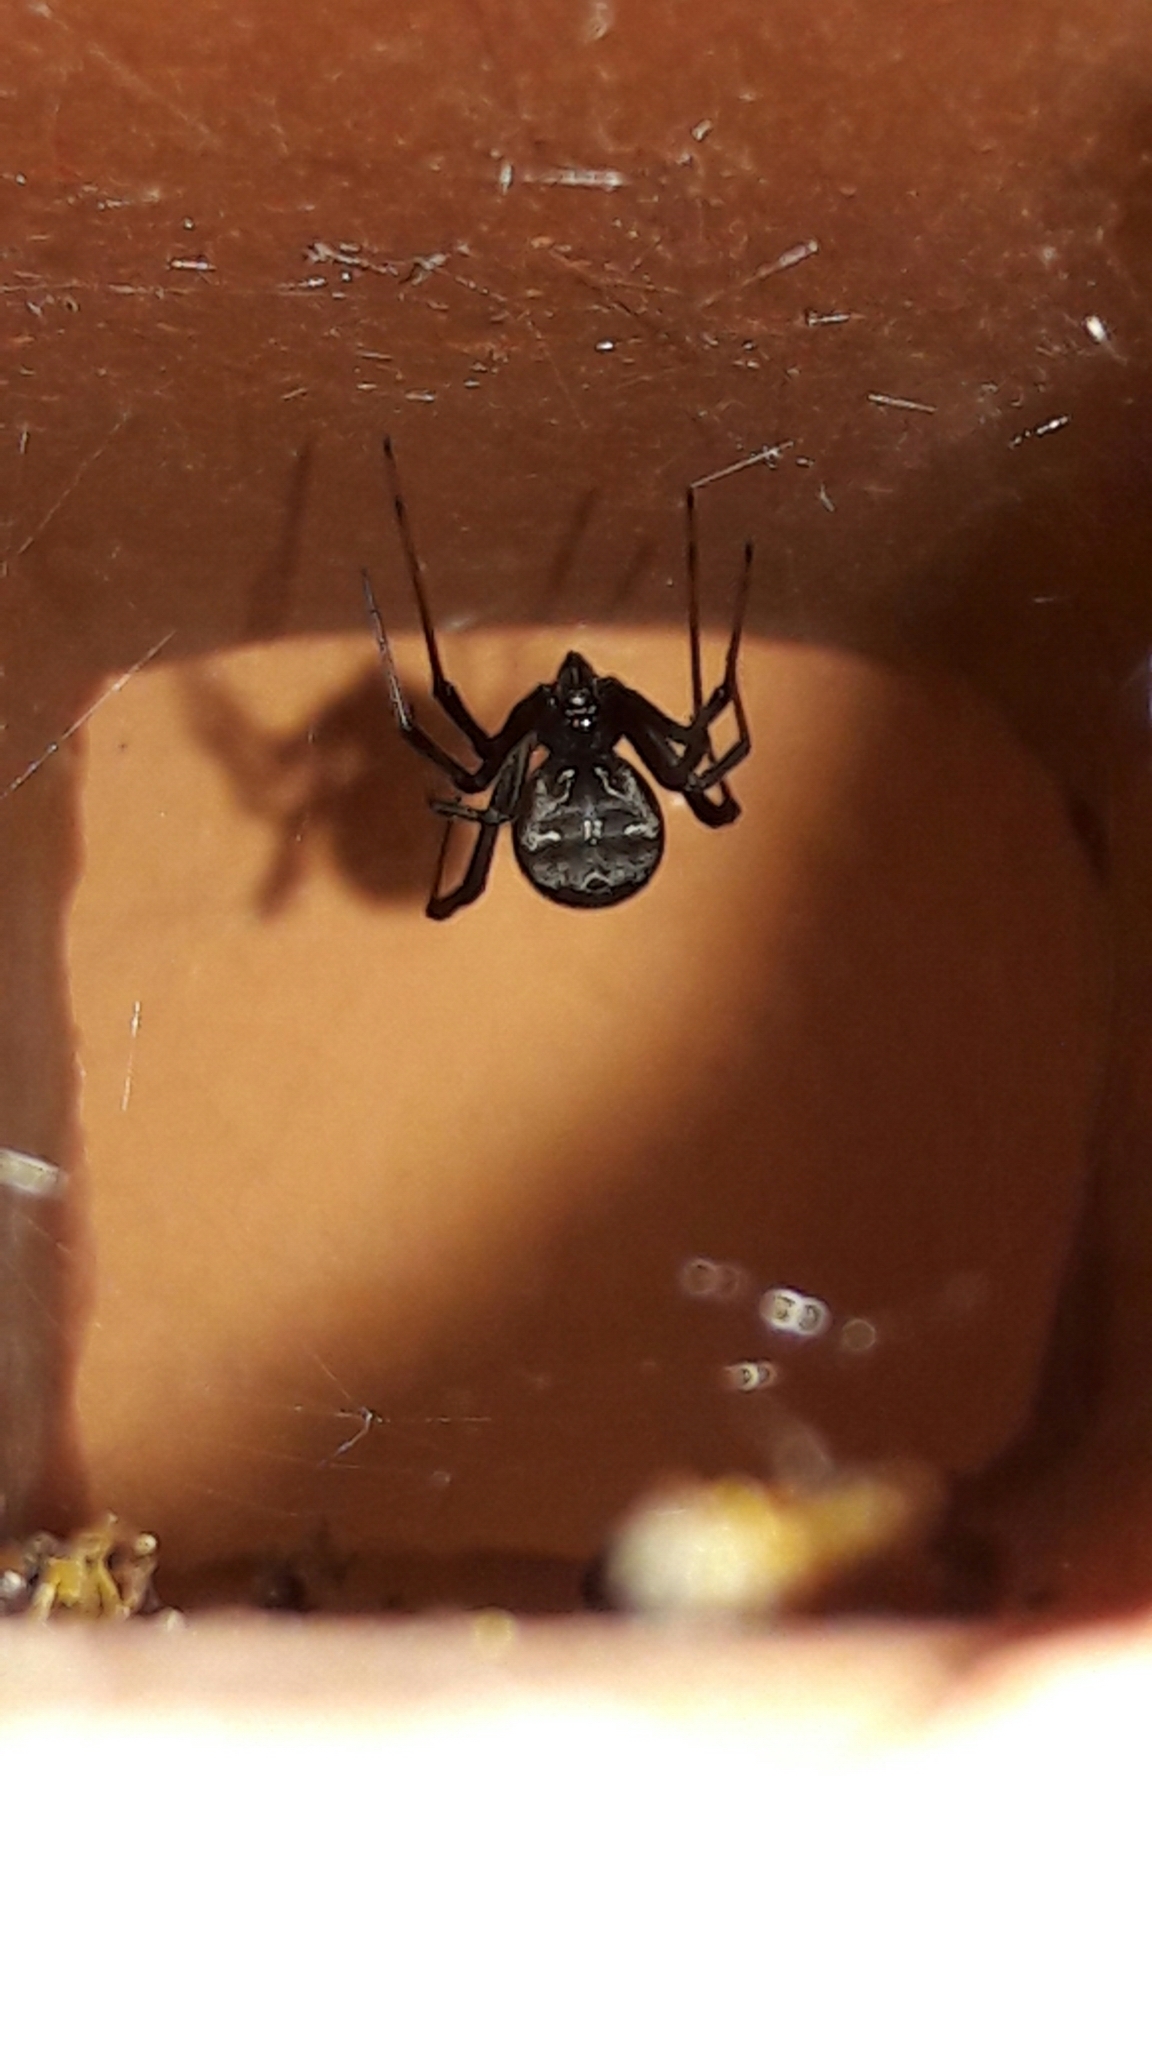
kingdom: Animalia
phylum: Arthropoda
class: Arachnida
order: Araneae
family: Theridiidae
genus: Latrodectus
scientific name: Latrodectus geometricus
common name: Brown widow spider
